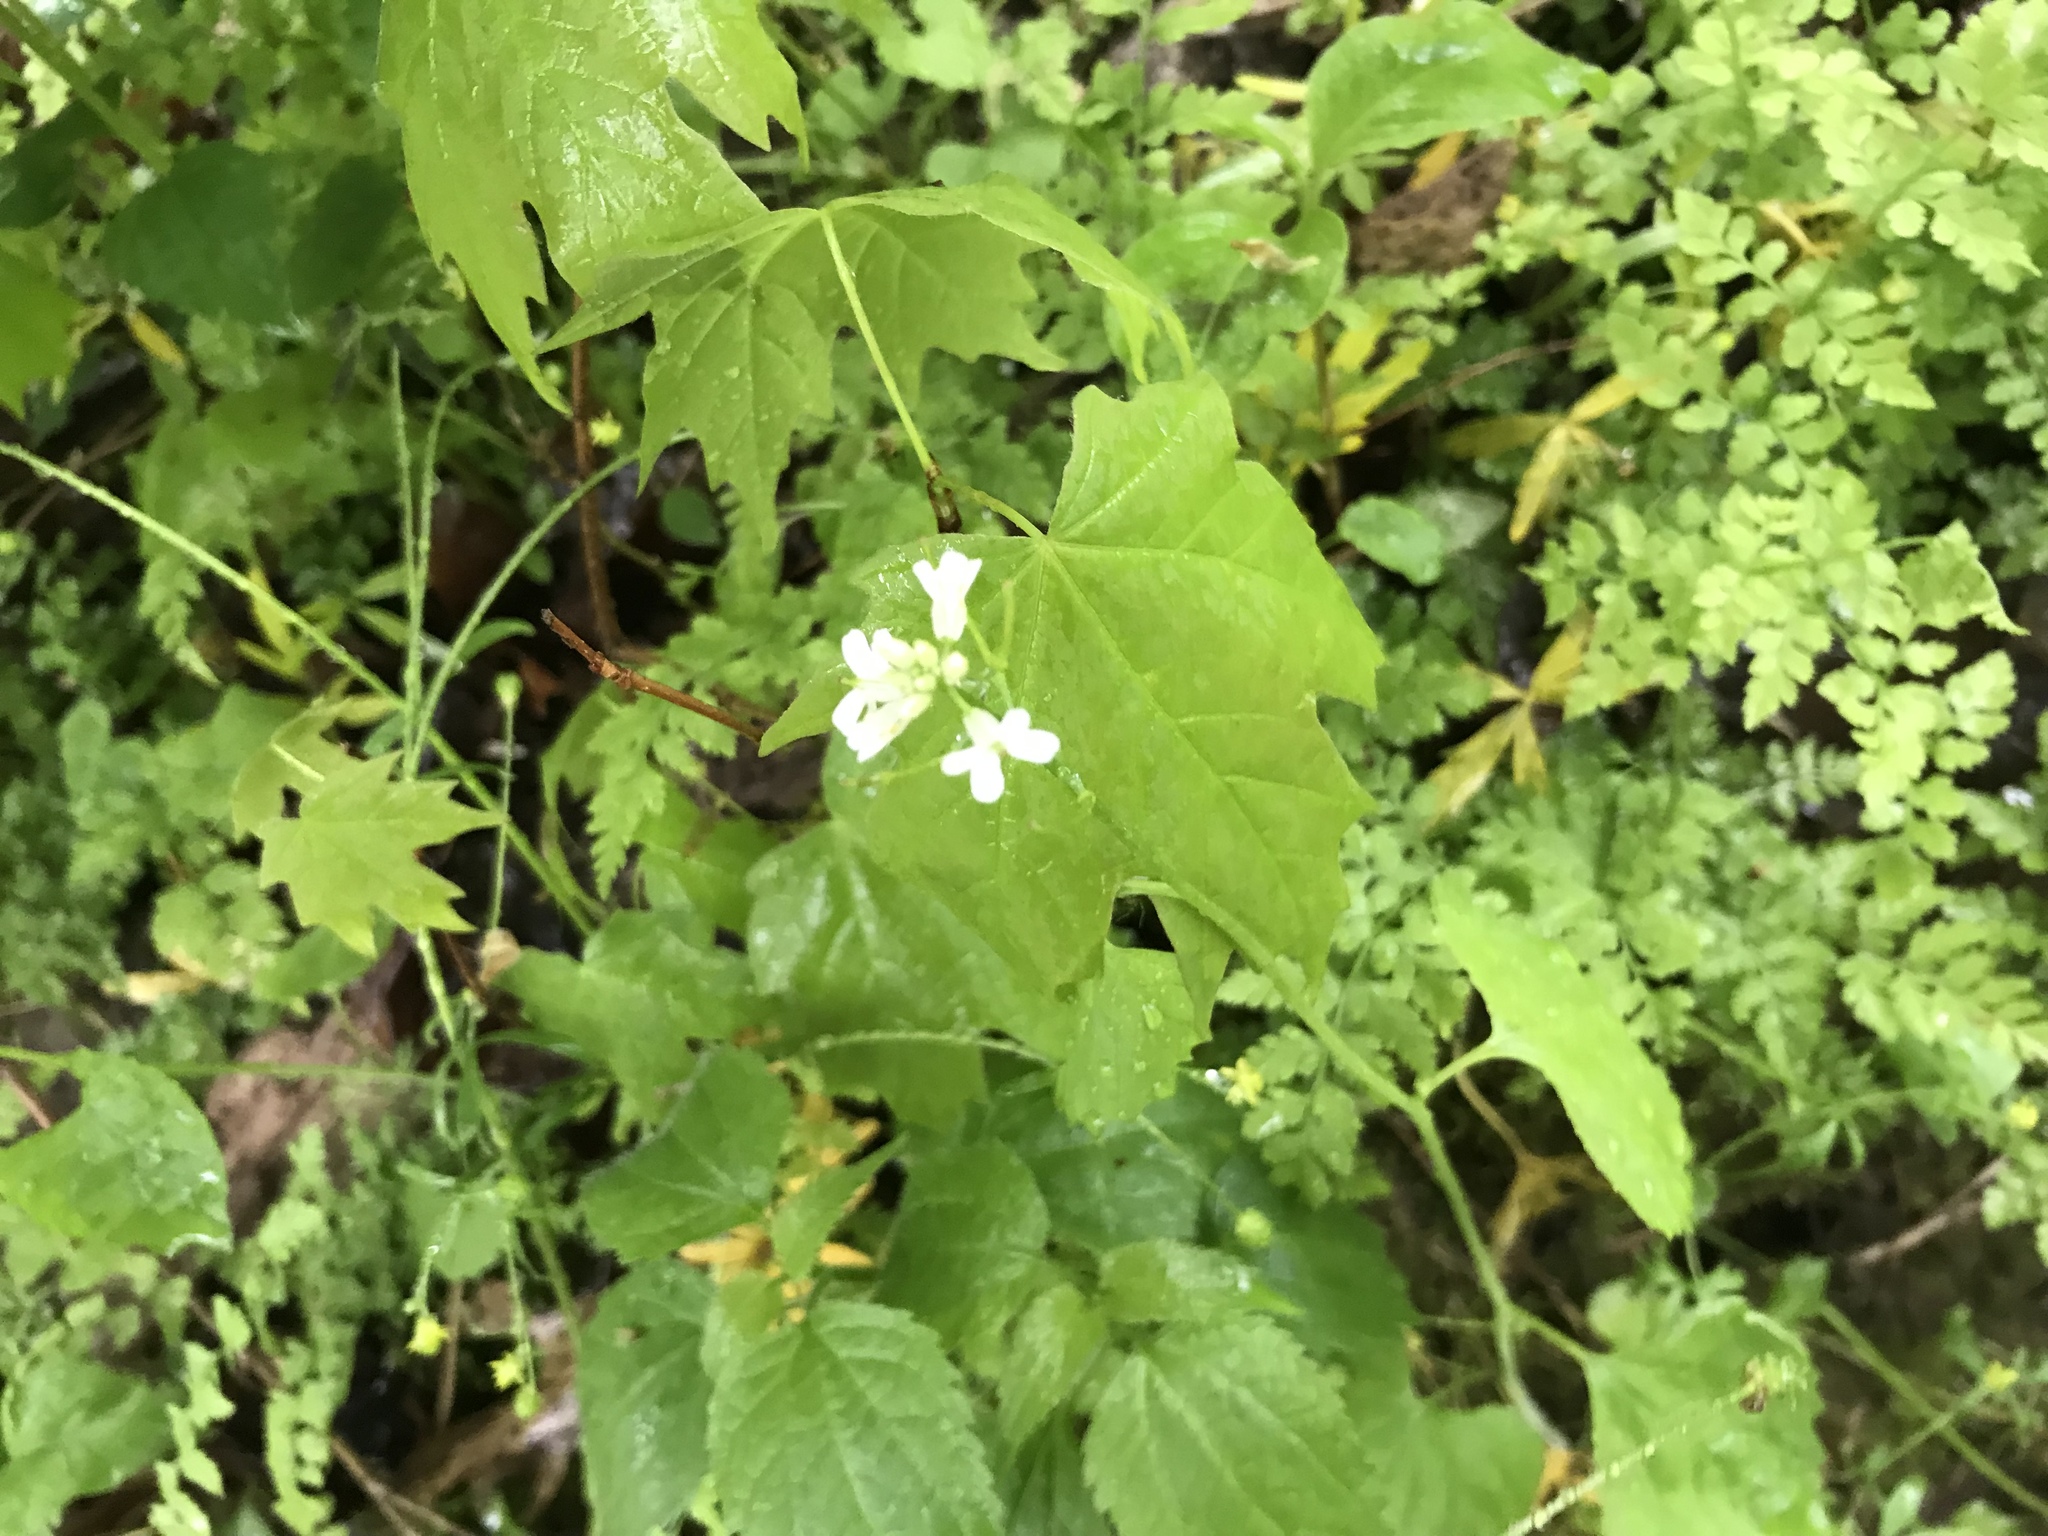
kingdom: Plantae
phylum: Tracheophyta
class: Magnoliopsida
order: Brassicales
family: Brassicaceae
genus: Alliaria
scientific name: Alliaria petiolata
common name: Garlic mustard
